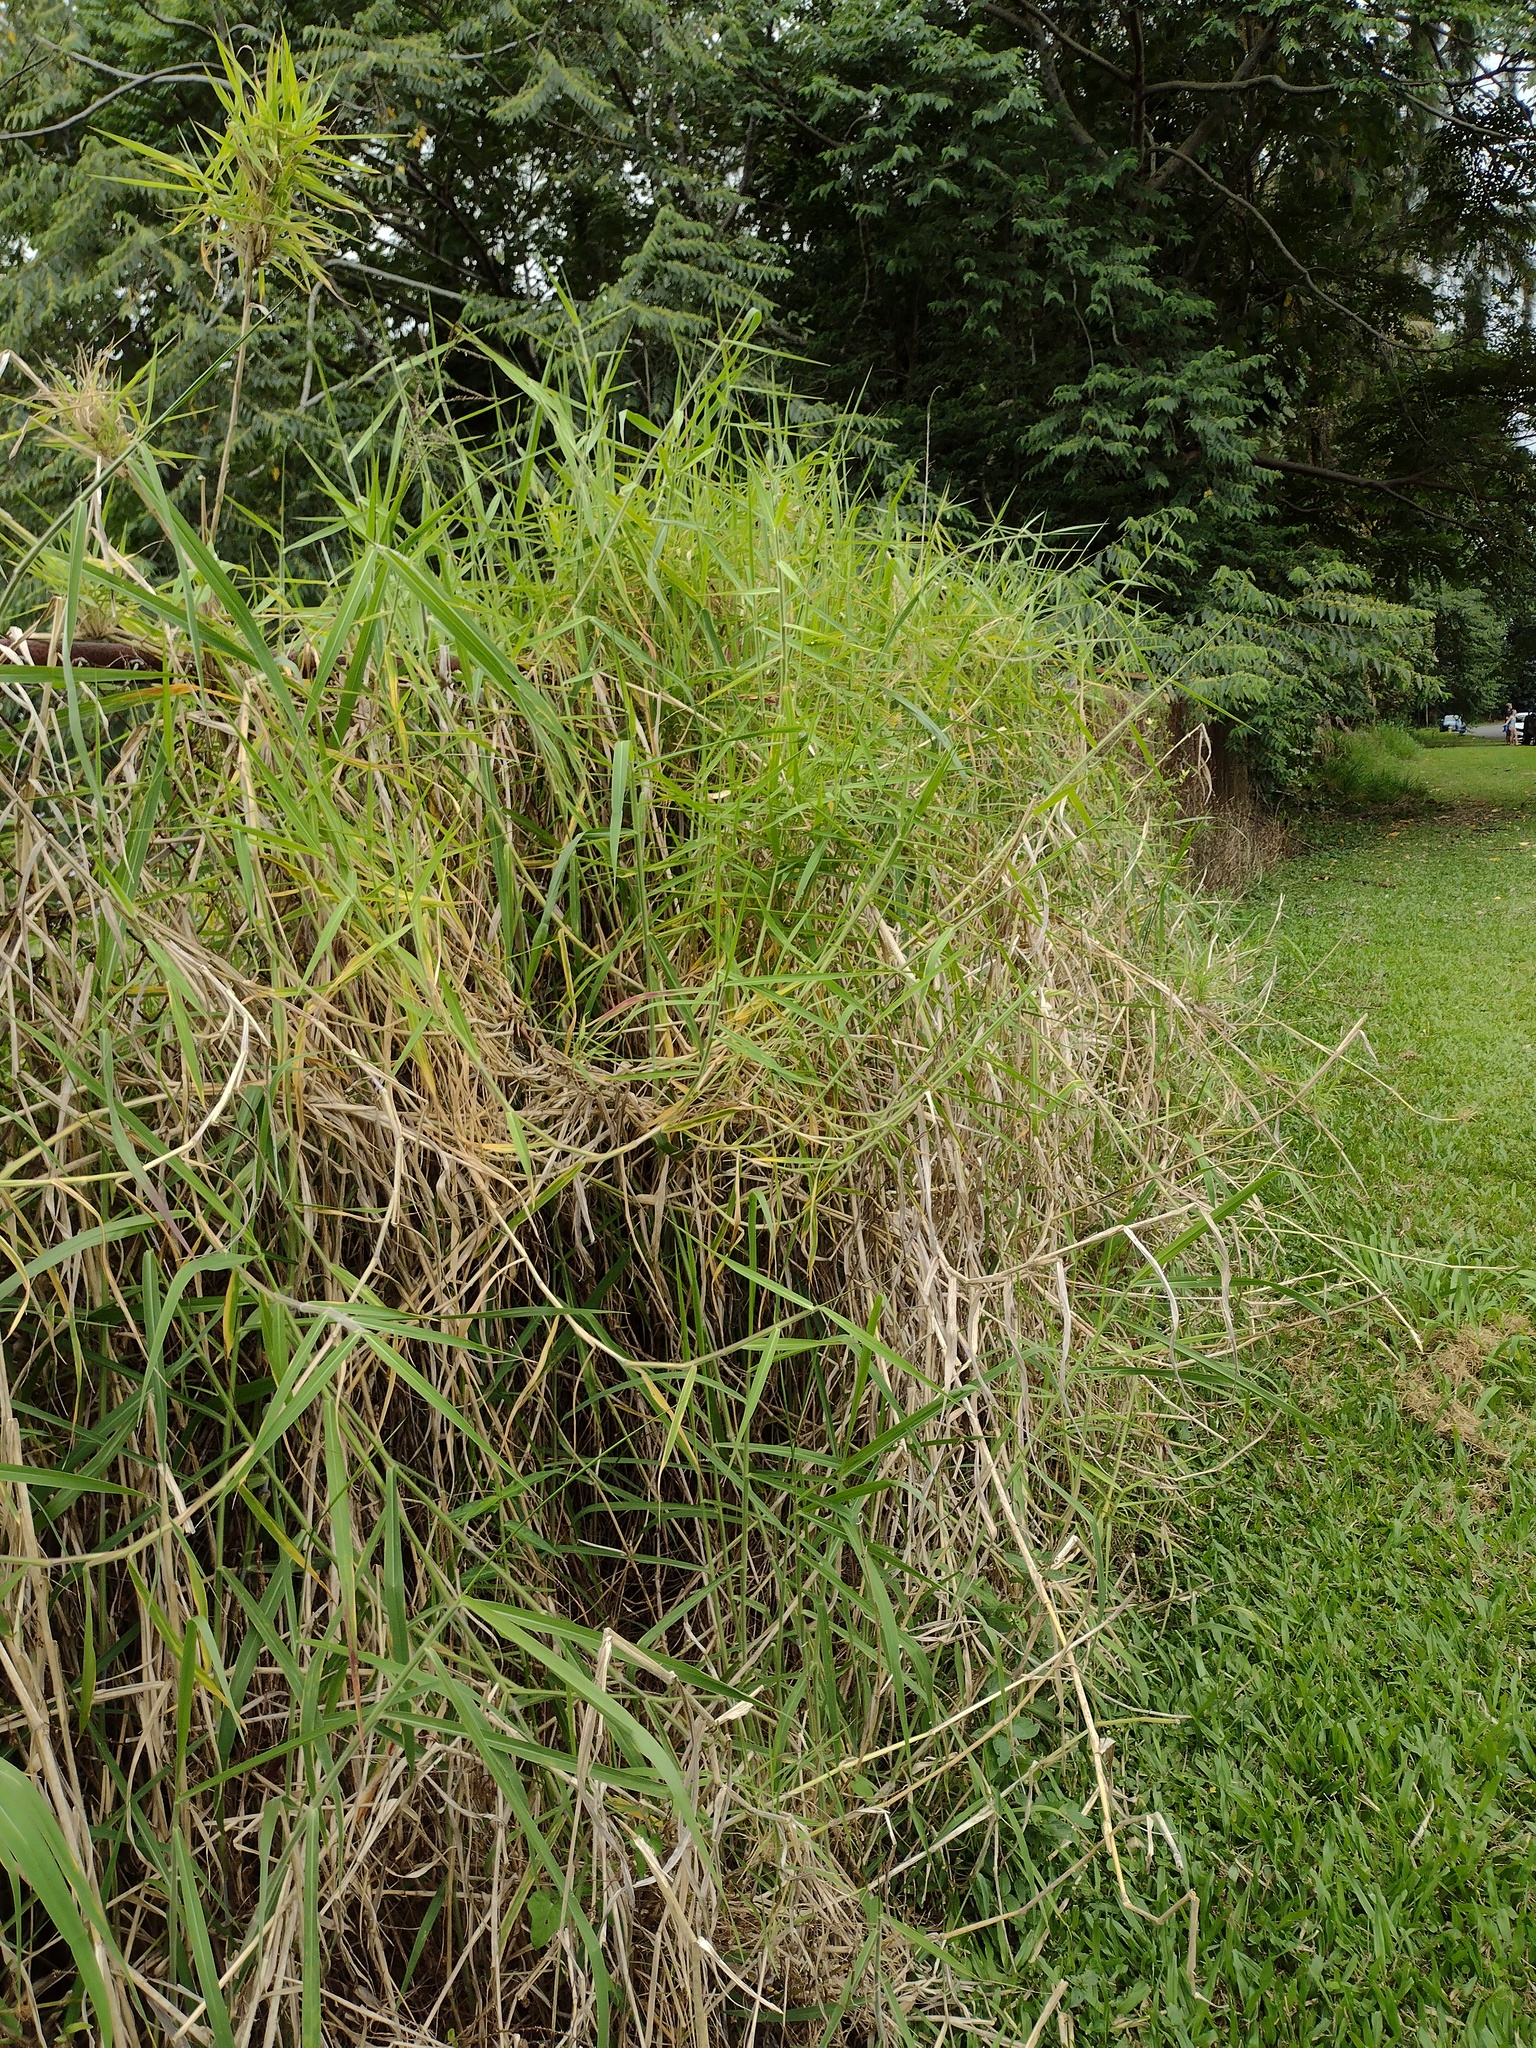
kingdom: Plantae
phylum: Tracheophyta
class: Liliopsida
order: Poales
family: Poaceae
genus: Urochloa
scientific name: Urochloa mutica
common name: Para grass
